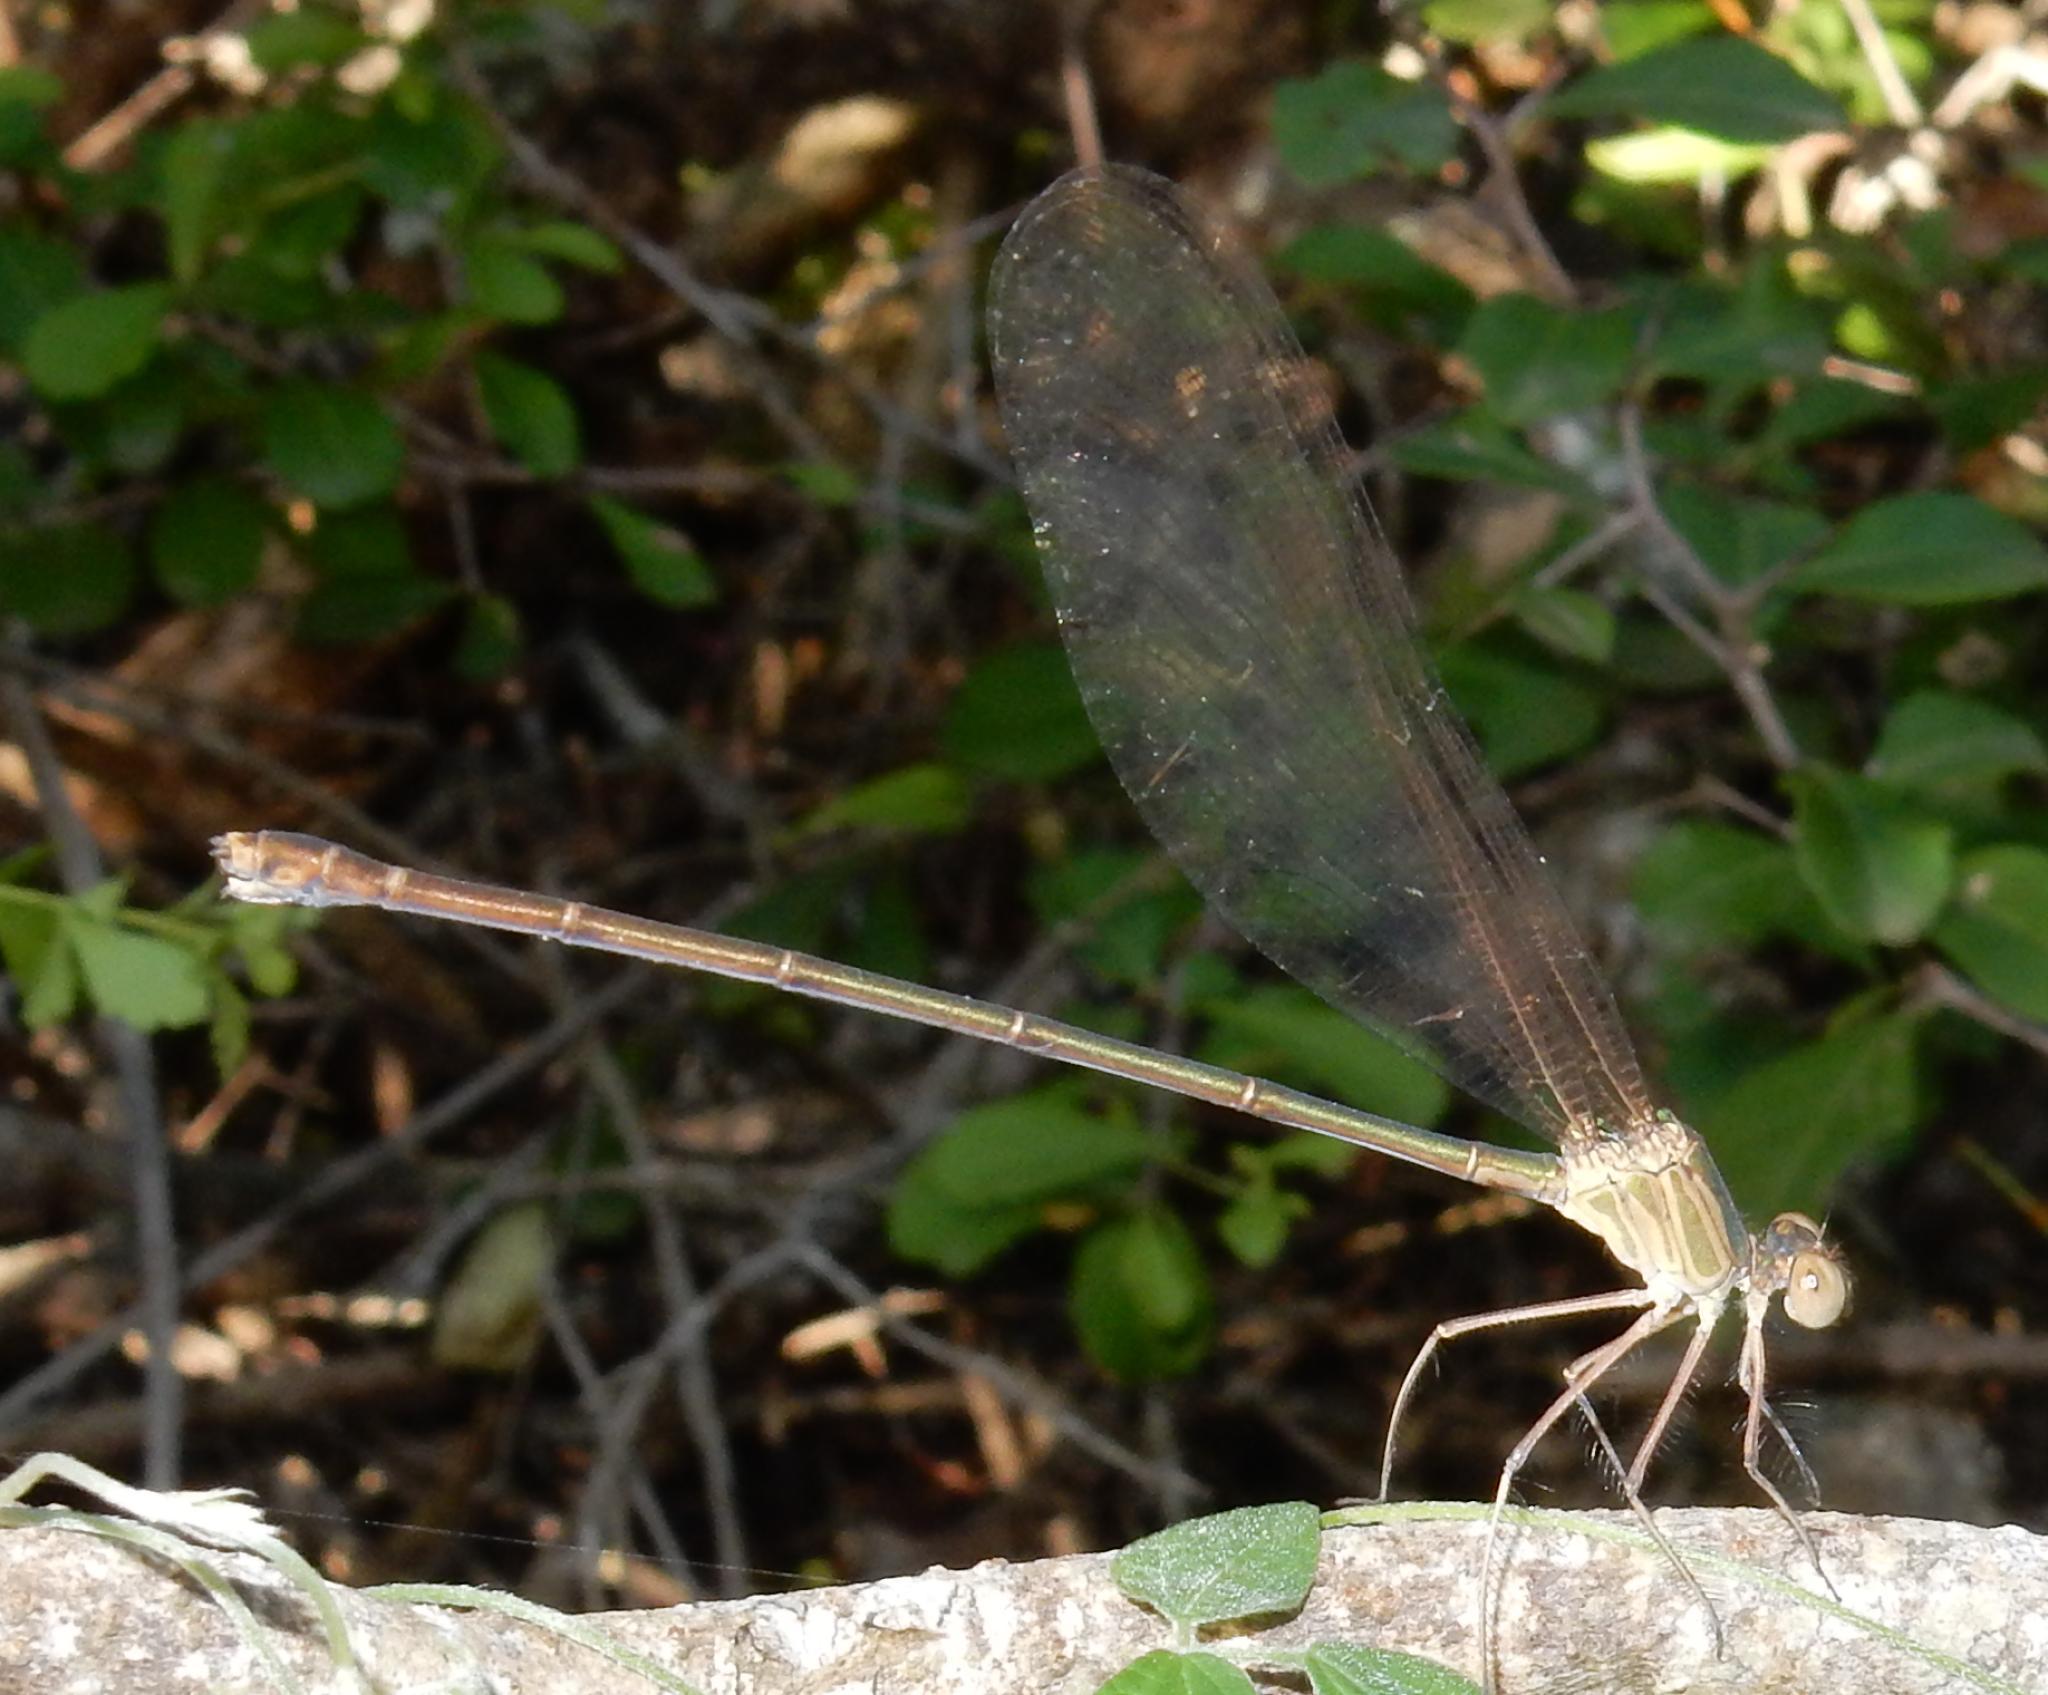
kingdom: Animalia
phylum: Arthropoda
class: Insecta
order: Odonata
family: Calopterygidae
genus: Phaon
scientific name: Phaon iridipennis
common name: Glistening demoiselle
